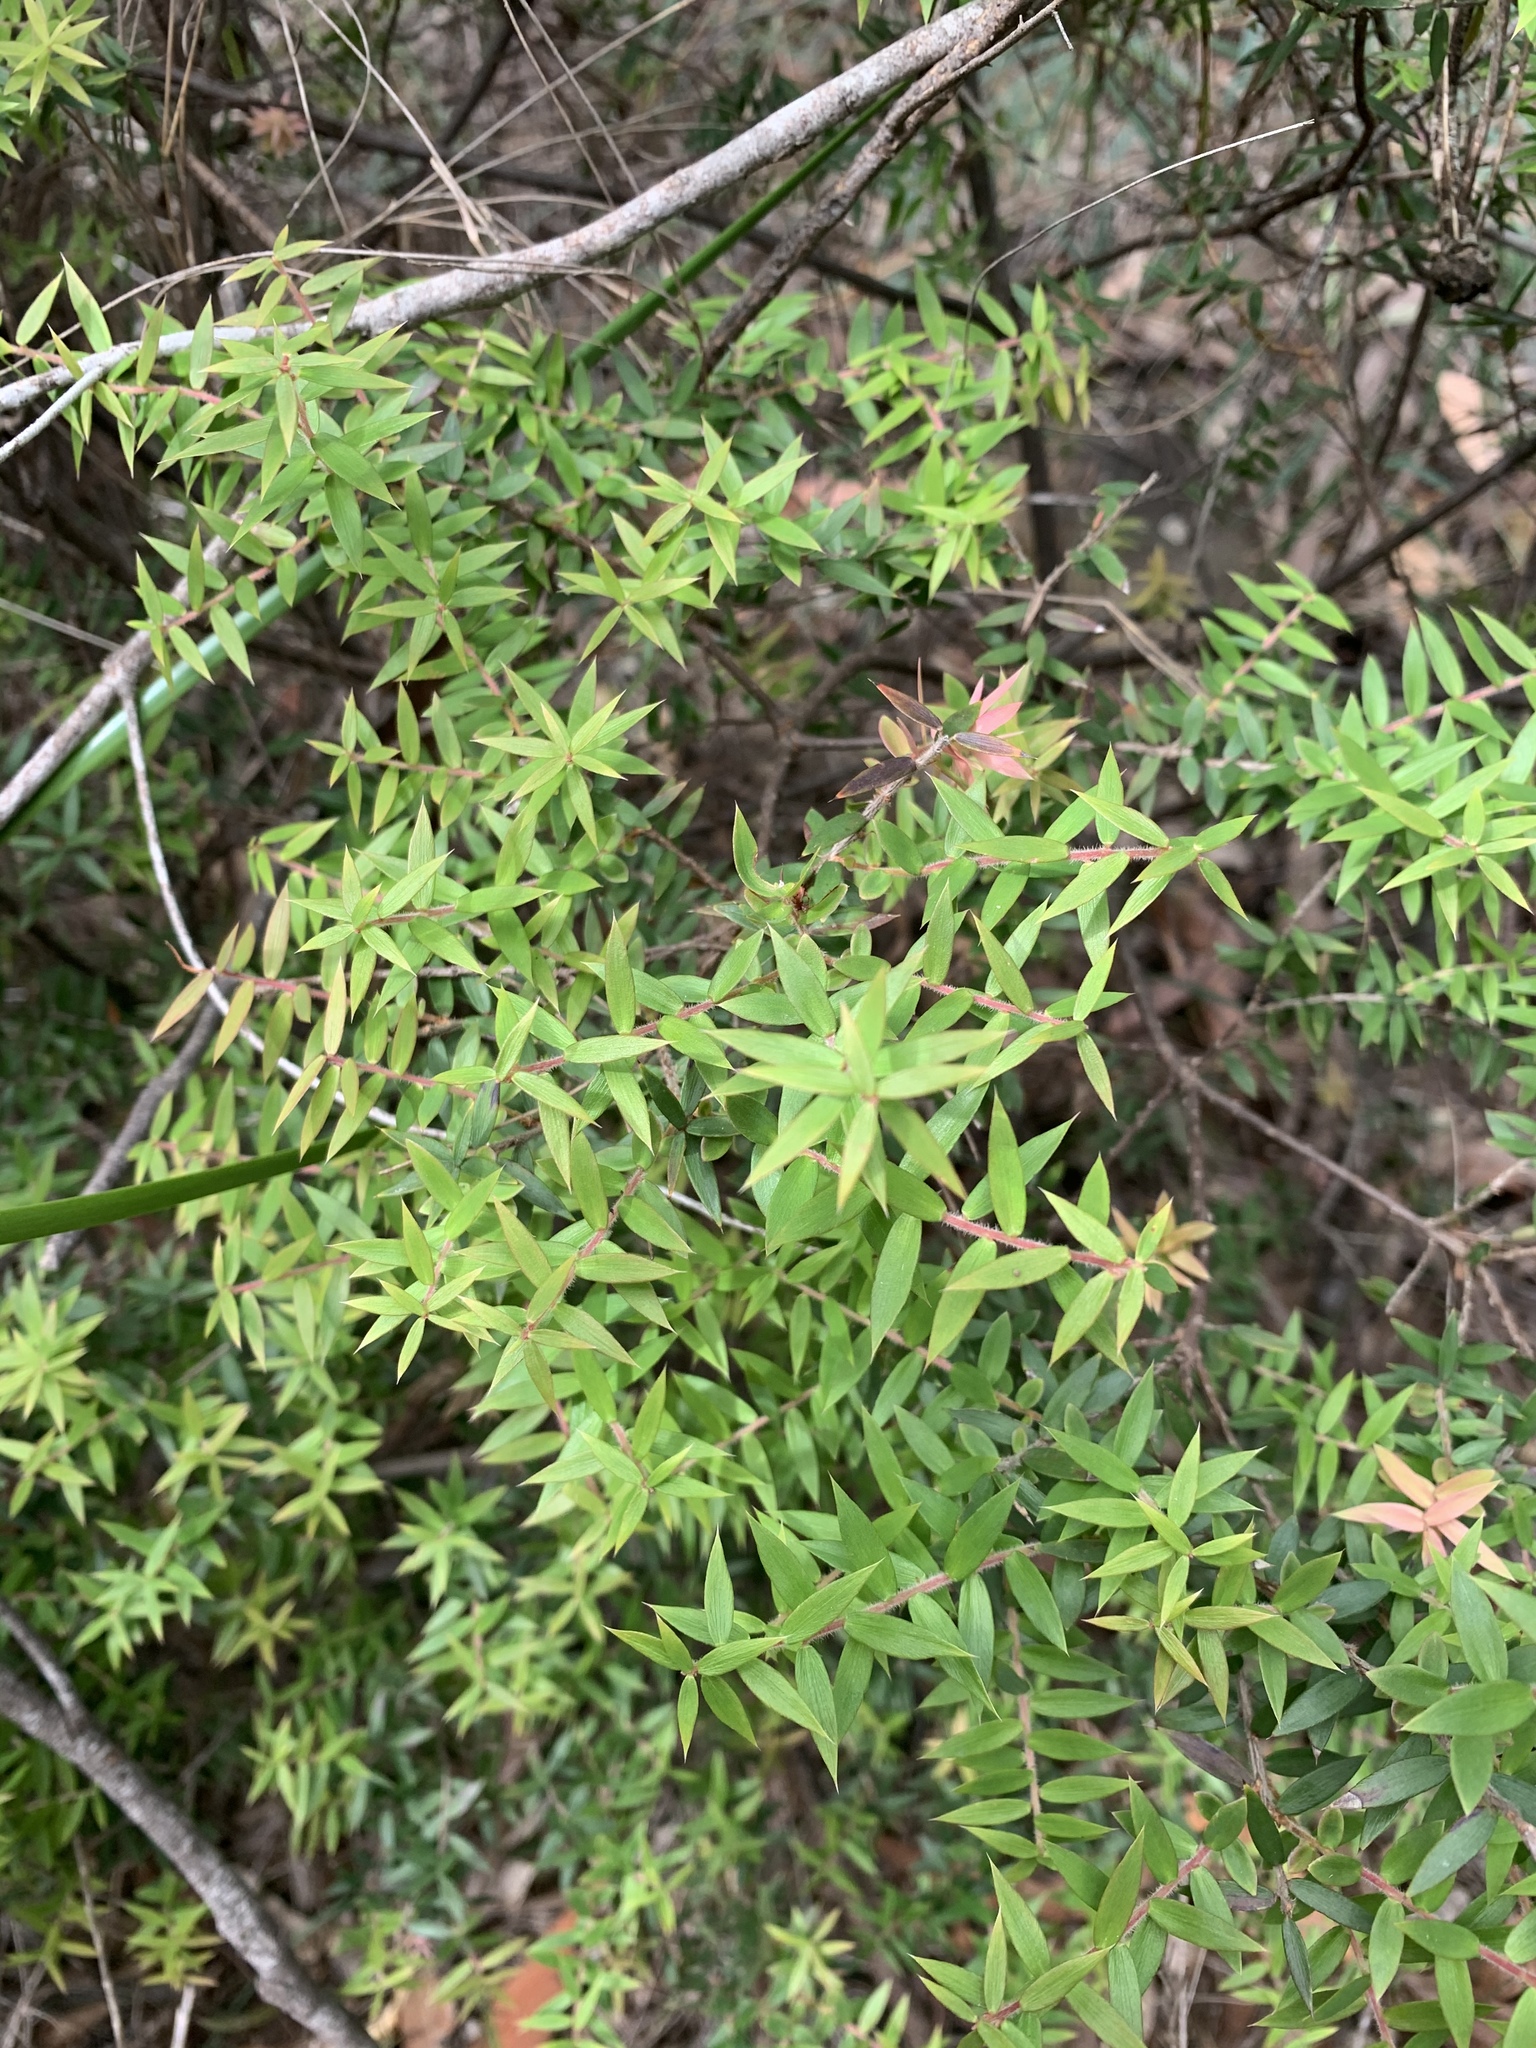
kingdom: Plantae
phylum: Tracheophyta
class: Magnoliopsida
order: Ericales
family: Ericaceae
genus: Acrotriche
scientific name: Acrotriche divaricata
